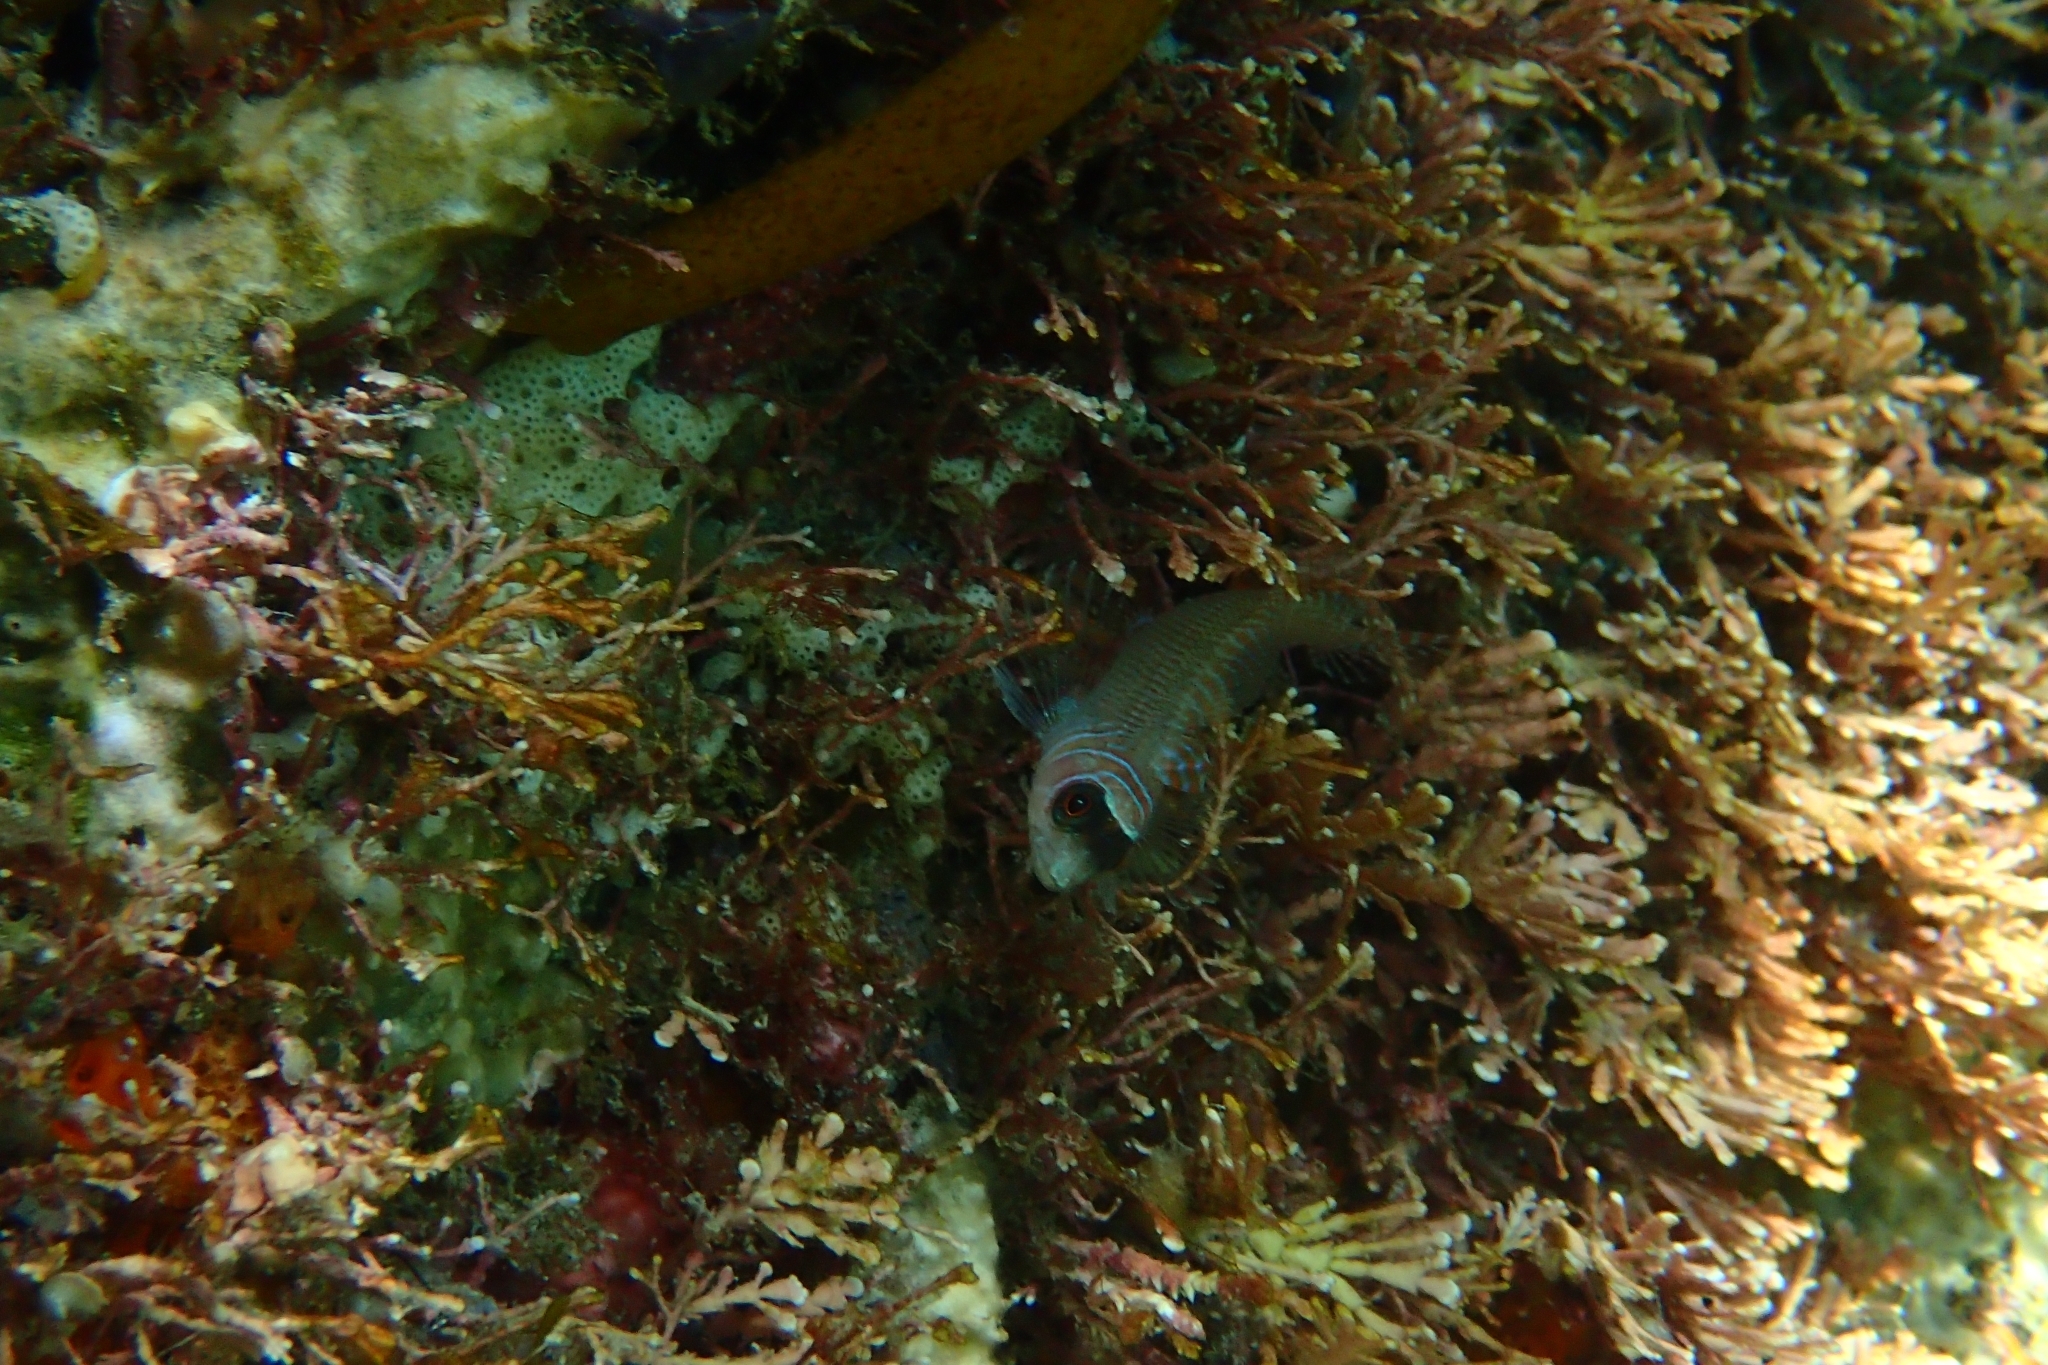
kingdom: Animalia
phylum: Chordata
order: Perciformes
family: Tripterygiidae
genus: Ruanoho
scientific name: Ruanoho whero
